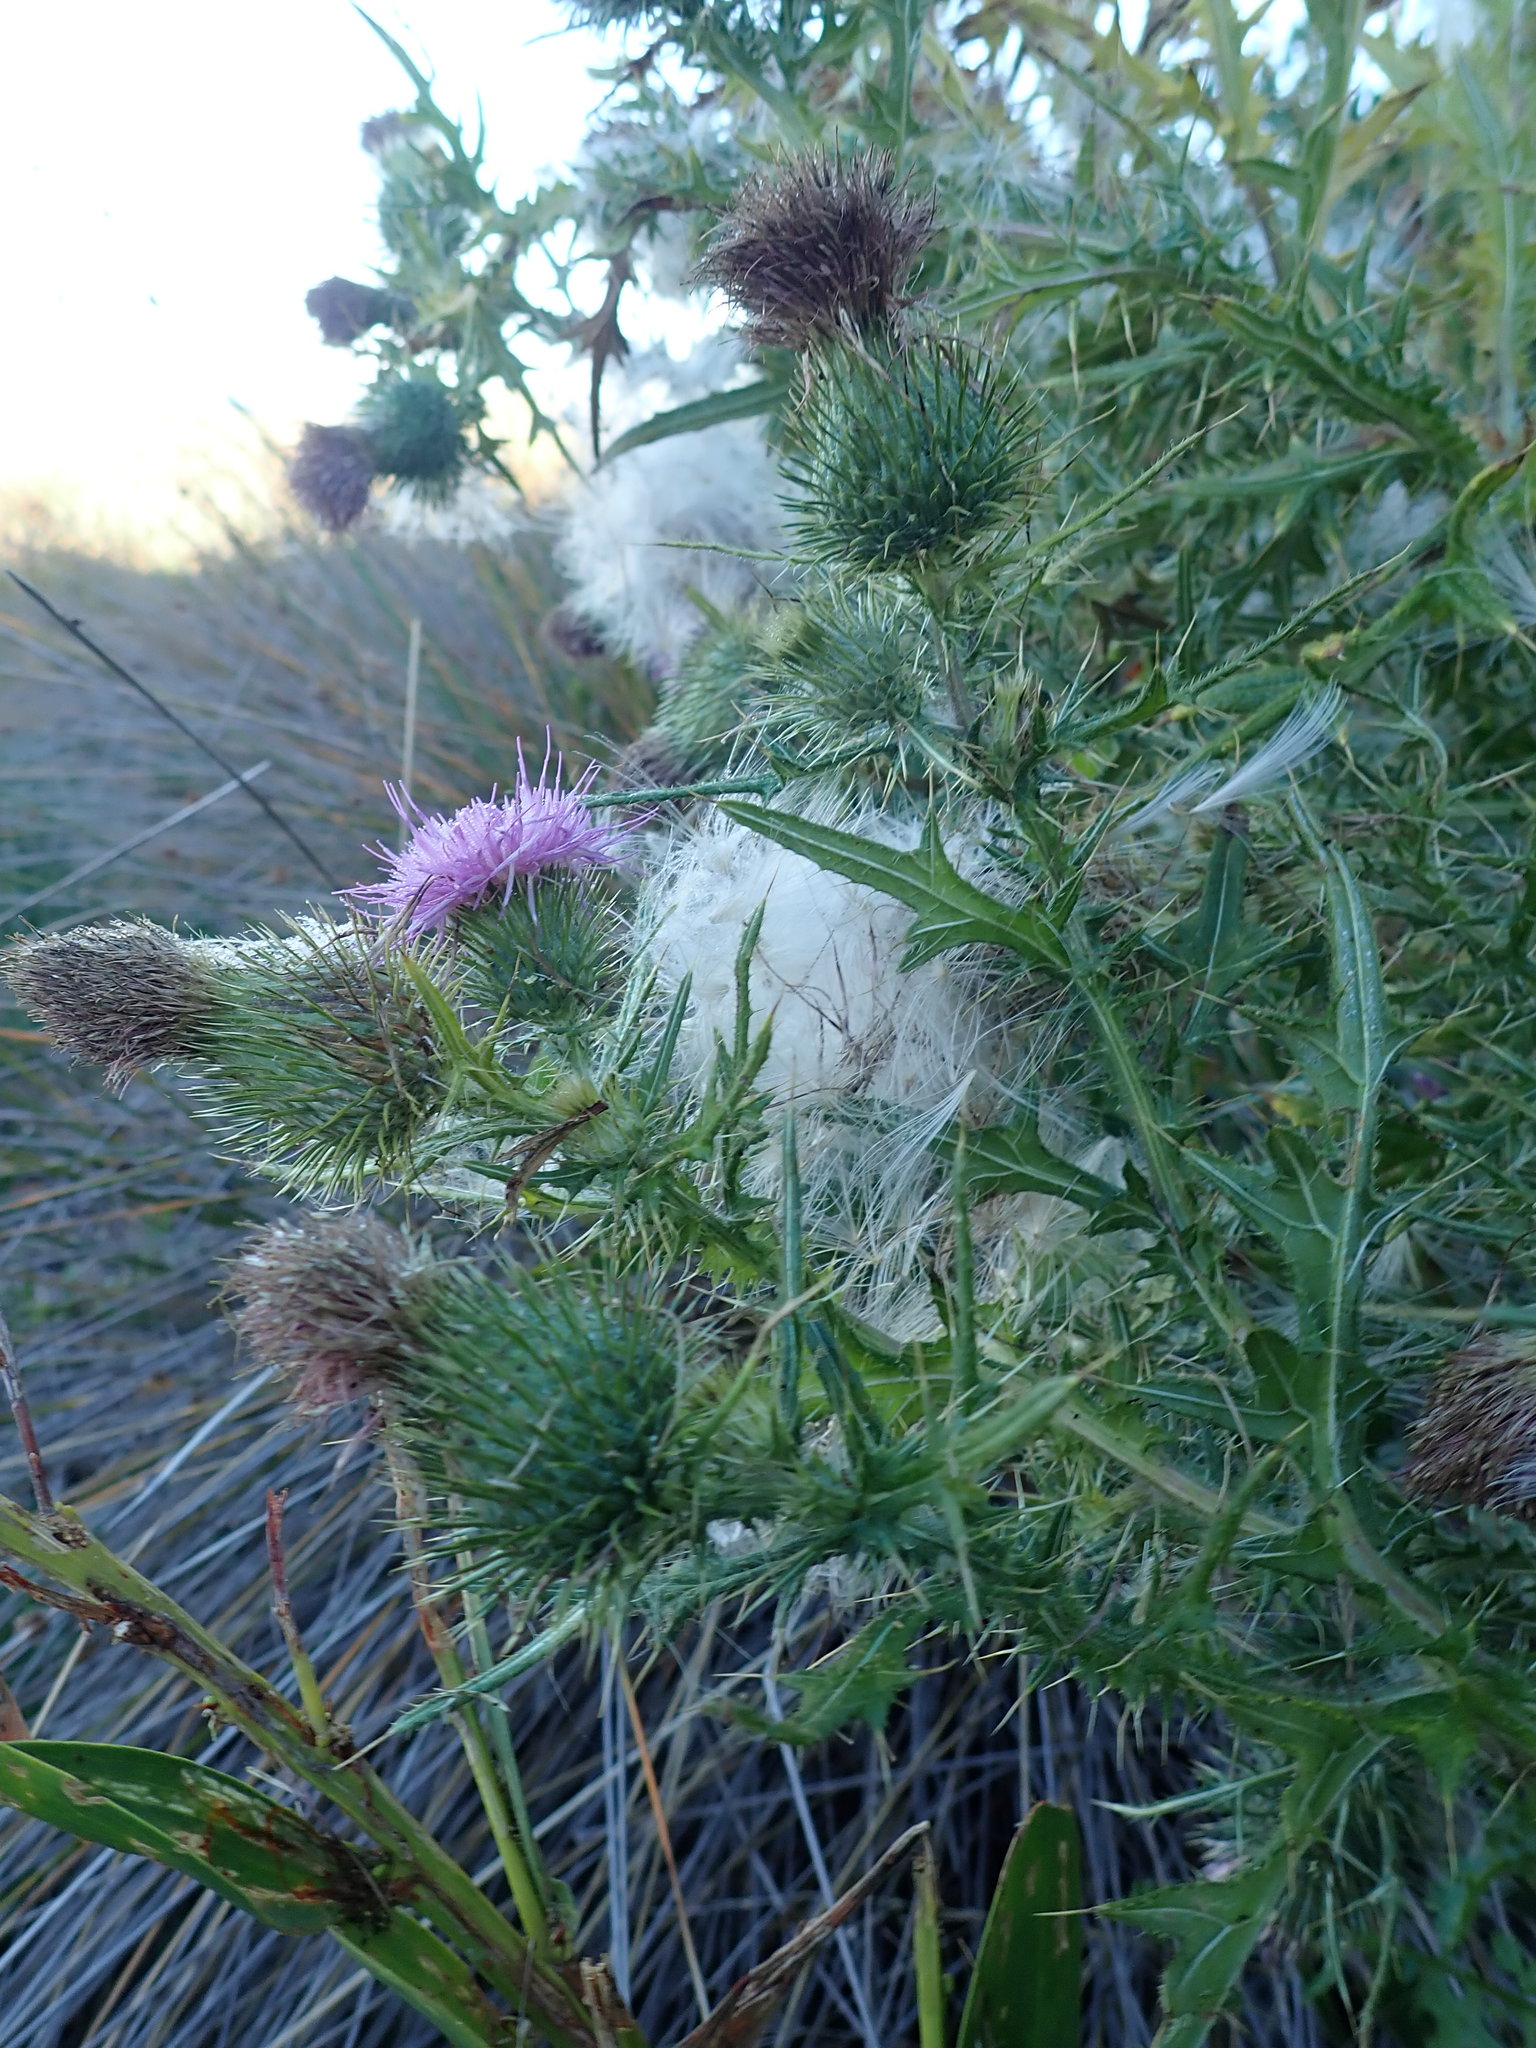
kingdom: Plantae
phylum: Tracheophyta
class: Magnoliopsida
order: Asterales
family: Asteraceae
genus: Cirsium
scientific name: Cirsium vulgare
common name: Bull thistle
